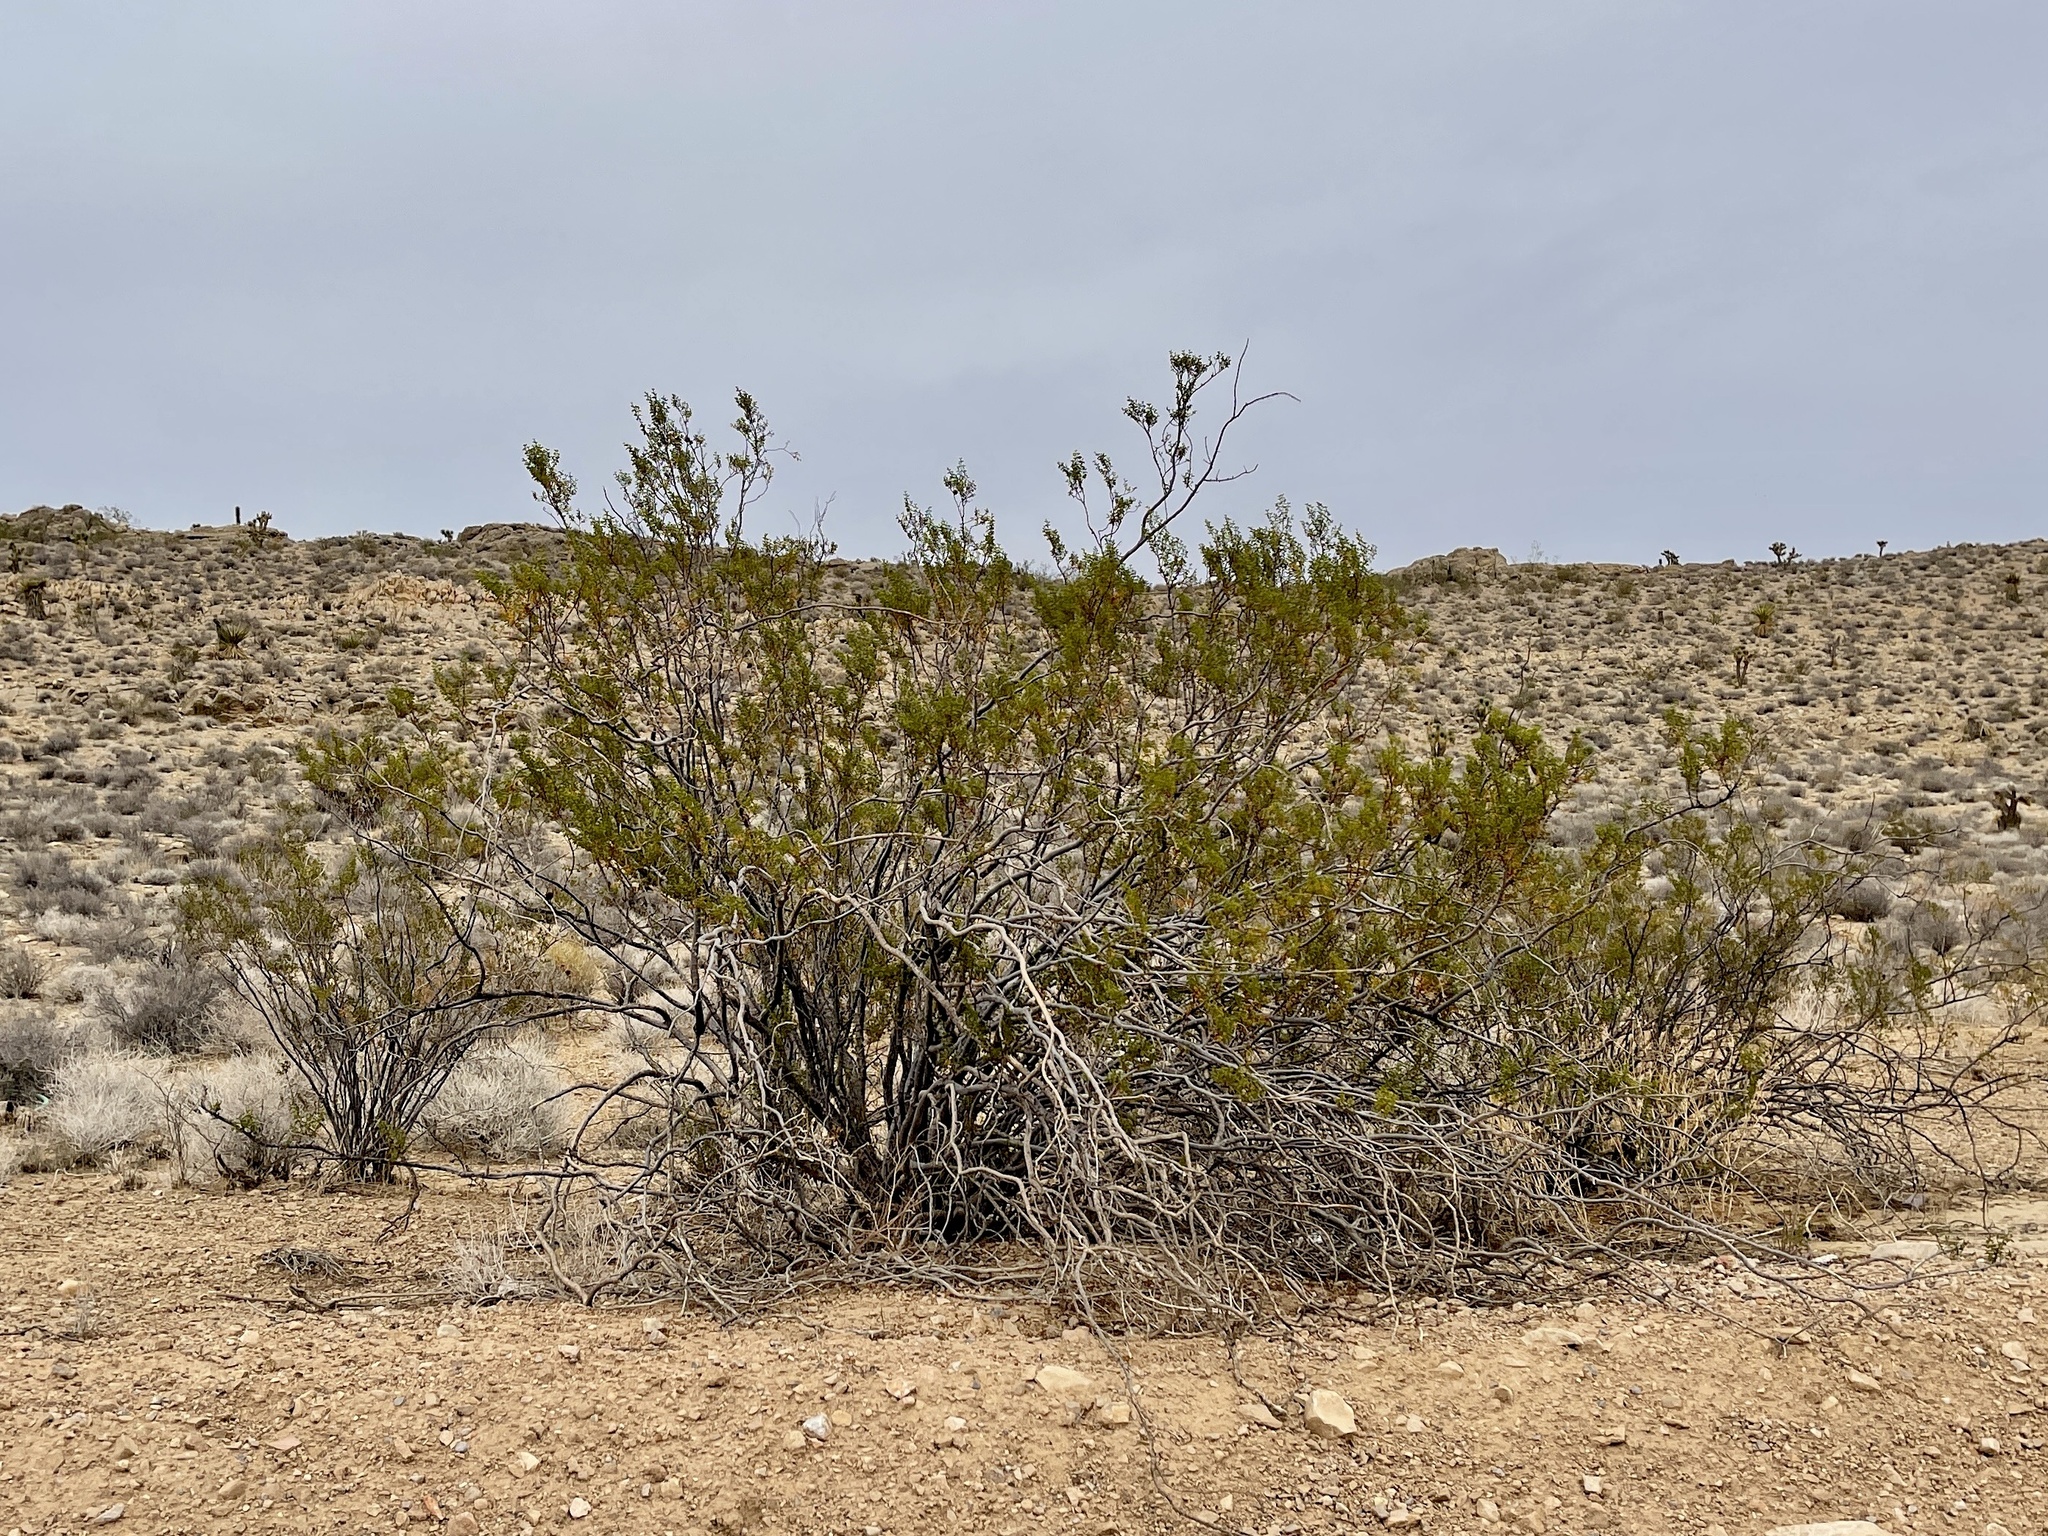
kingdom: Plantae
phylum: Tracheophyta
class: Magnoliopsida
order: Zygophyllales
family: Zygophyllaceae
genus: Larrea
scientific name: Larrea tridentata
